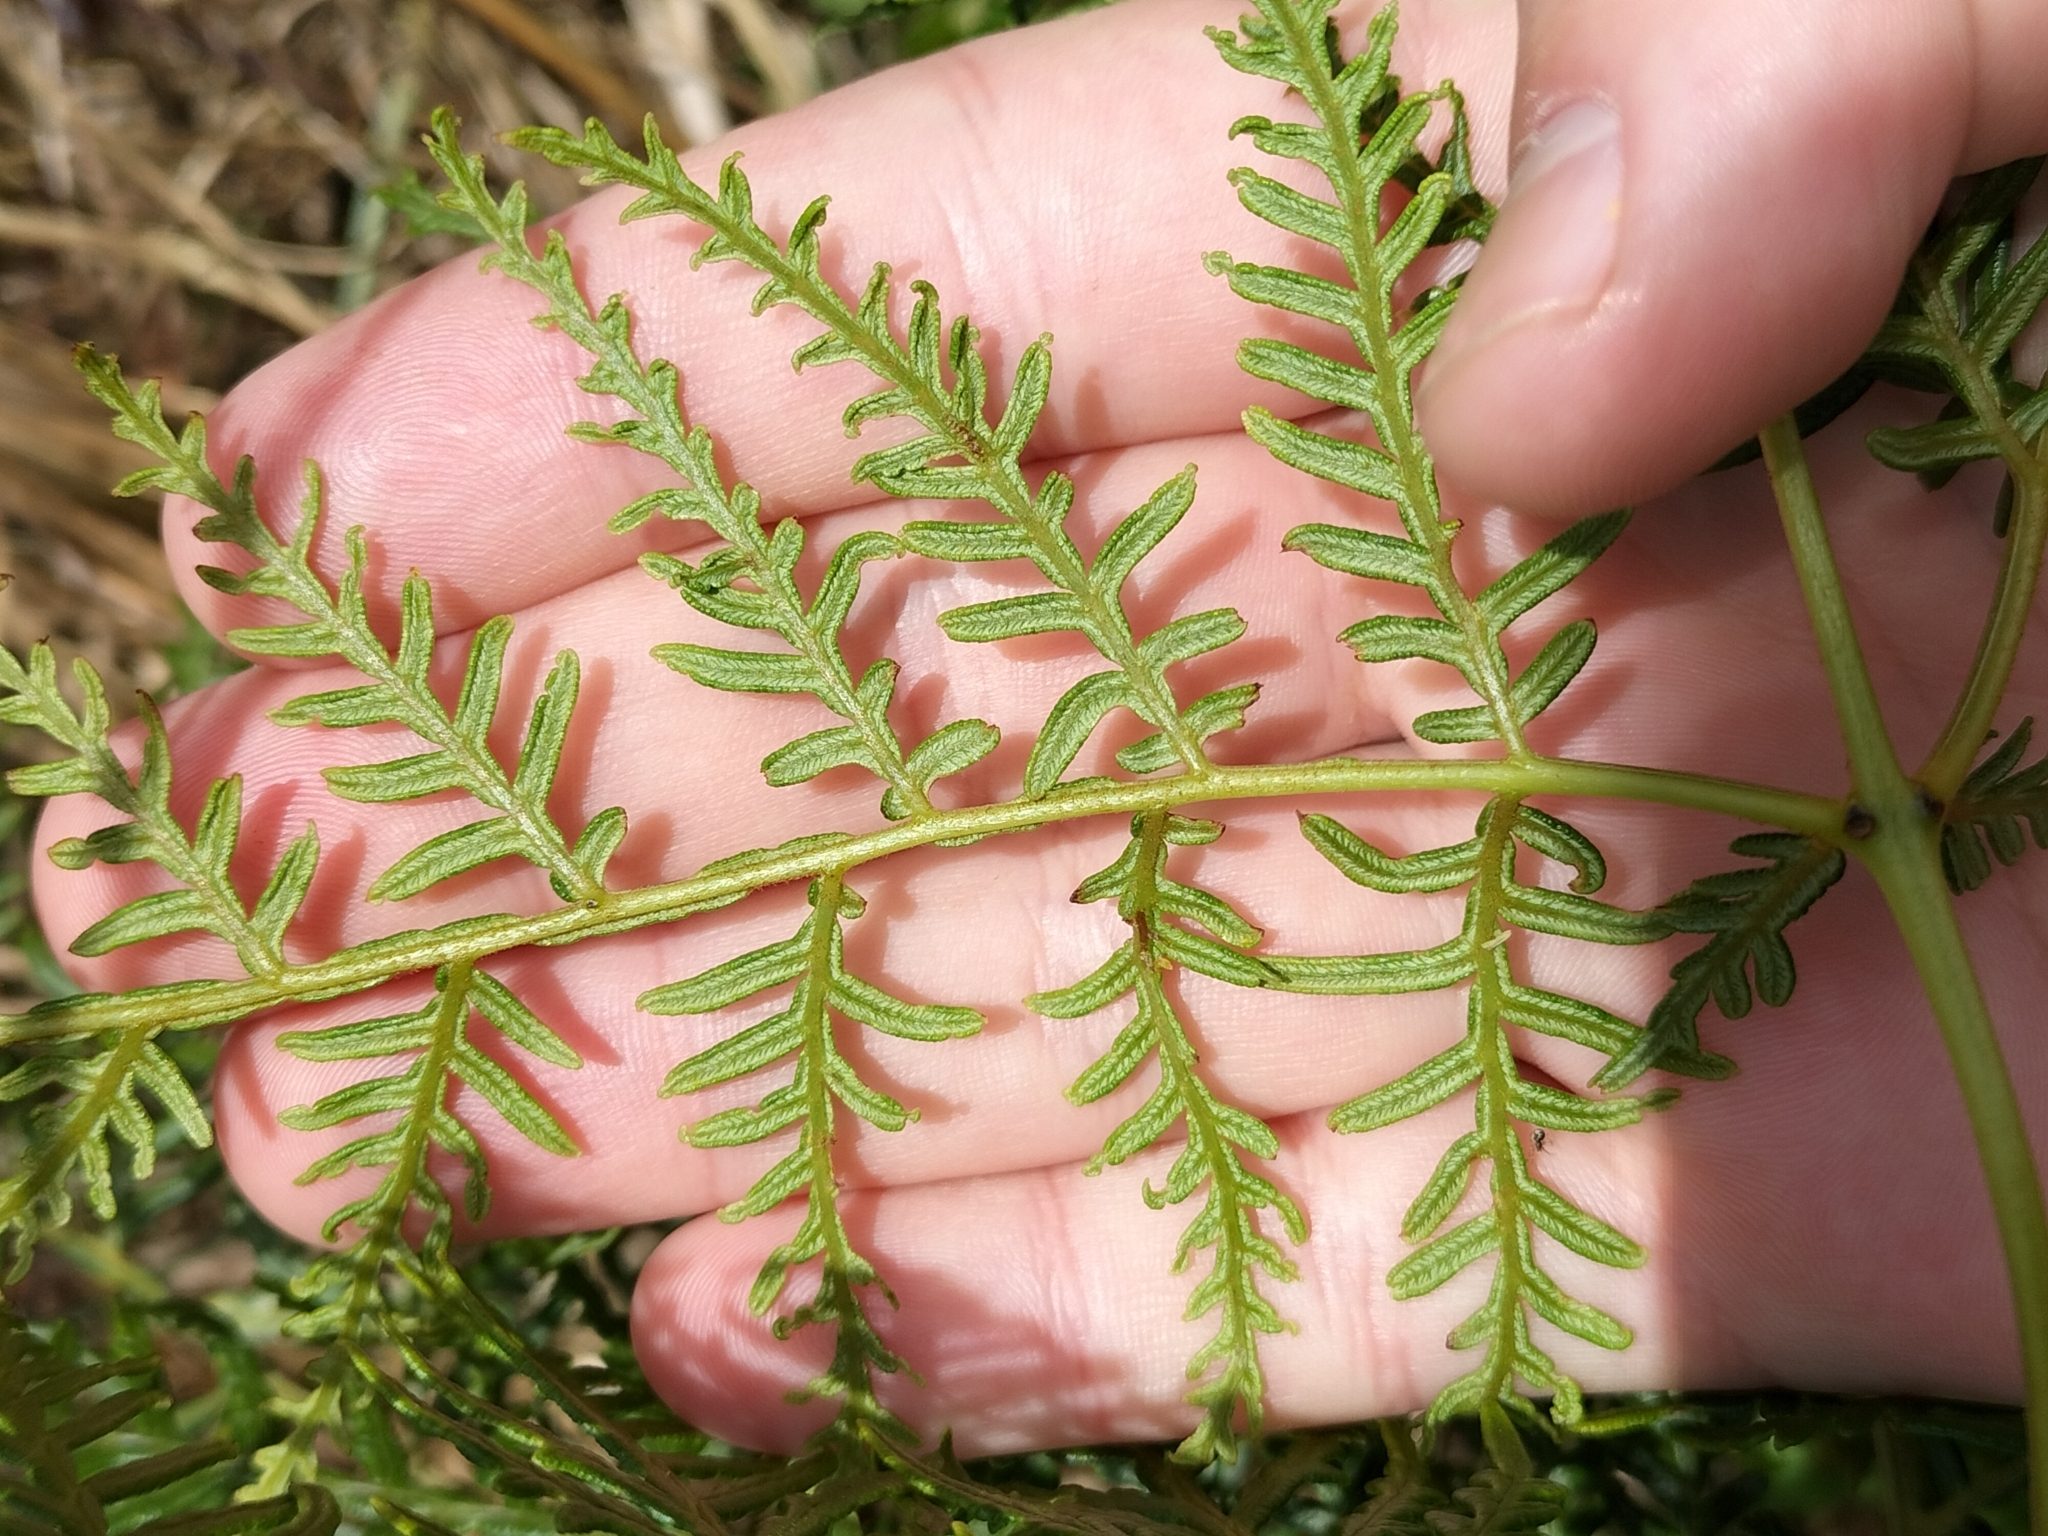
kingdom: Plantae
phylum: Tracheophyta
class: Polypodiopsida
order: Polypodiales
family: Dennstaedtiaceae
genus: Pteridium
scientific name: Pteridium esculentum
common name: Bracken fern
